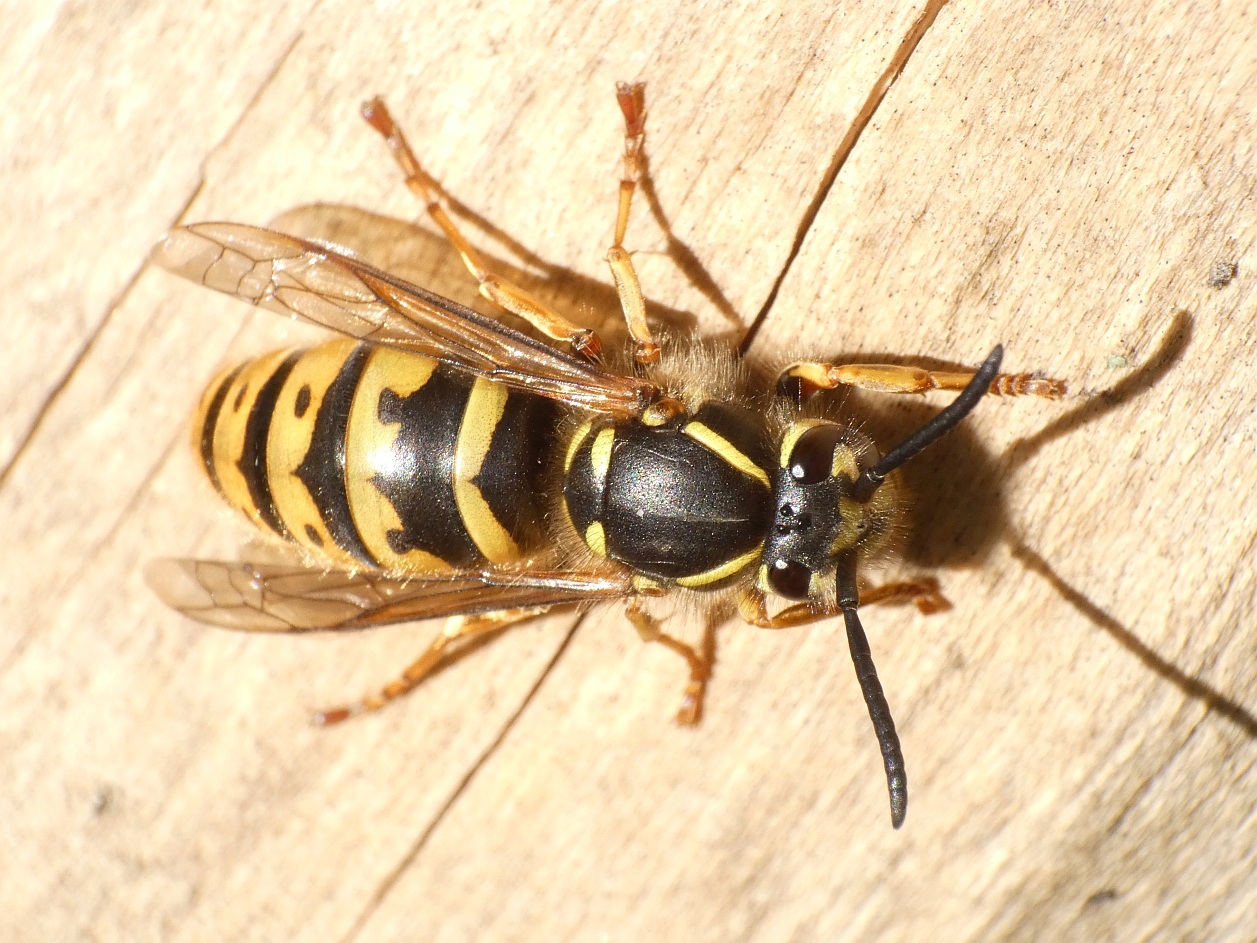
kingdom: Animalia
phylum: Arthropoda
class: Insecta
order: Hymenoptera
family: Vespidae
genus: Vespula
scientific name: Vespula vulgaris
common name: Common wasp
